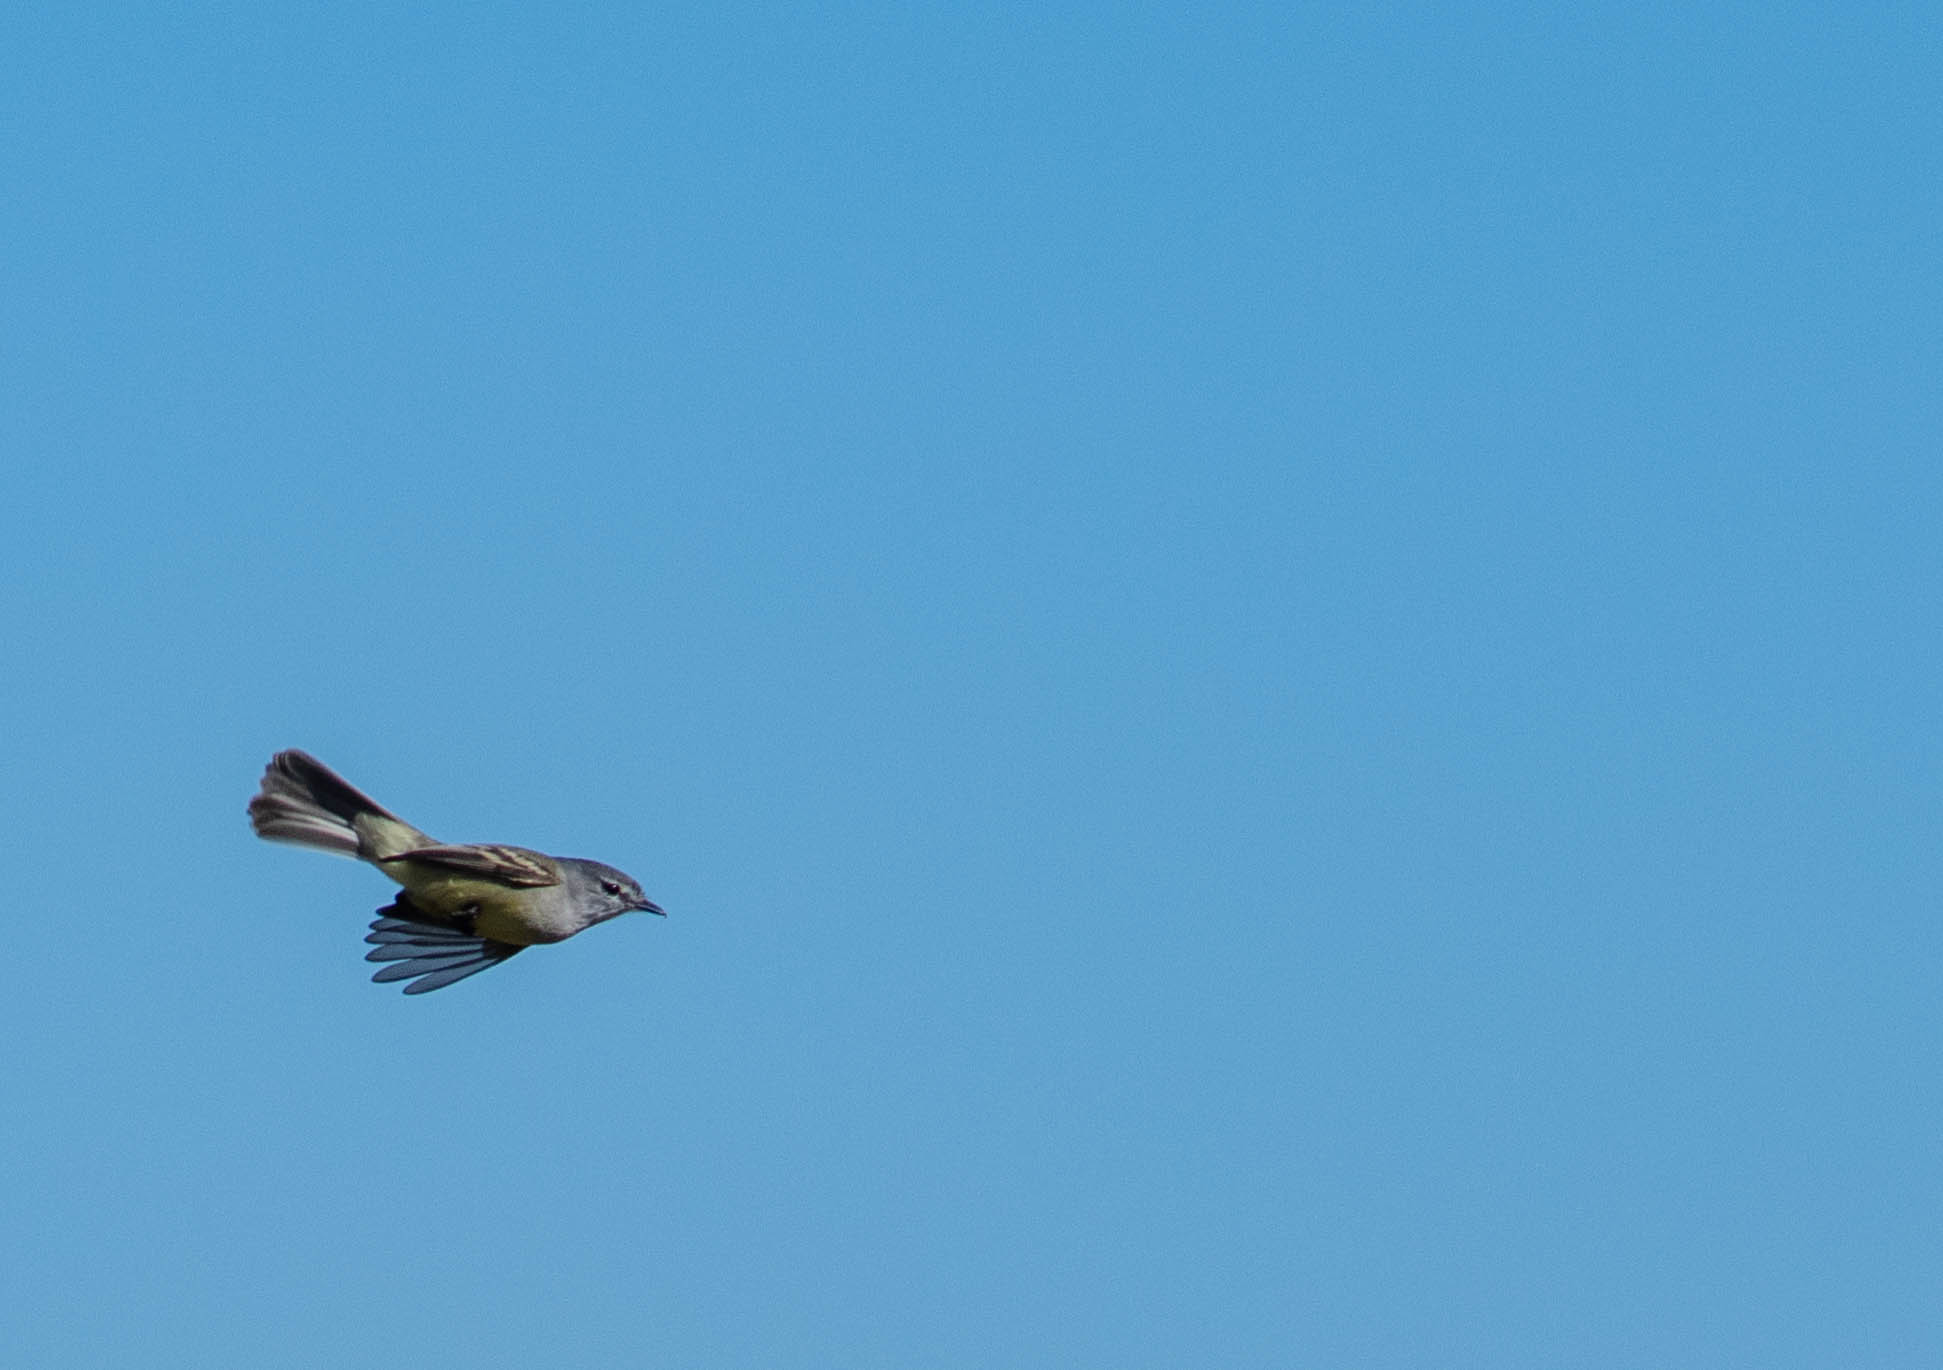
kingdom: Animalia
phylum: Chordata
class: Aves
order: Passeriformes
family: Tyrannidae
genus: Serpophaga
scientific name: Serpophaga subcristata
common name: White-crested tyrannulet
